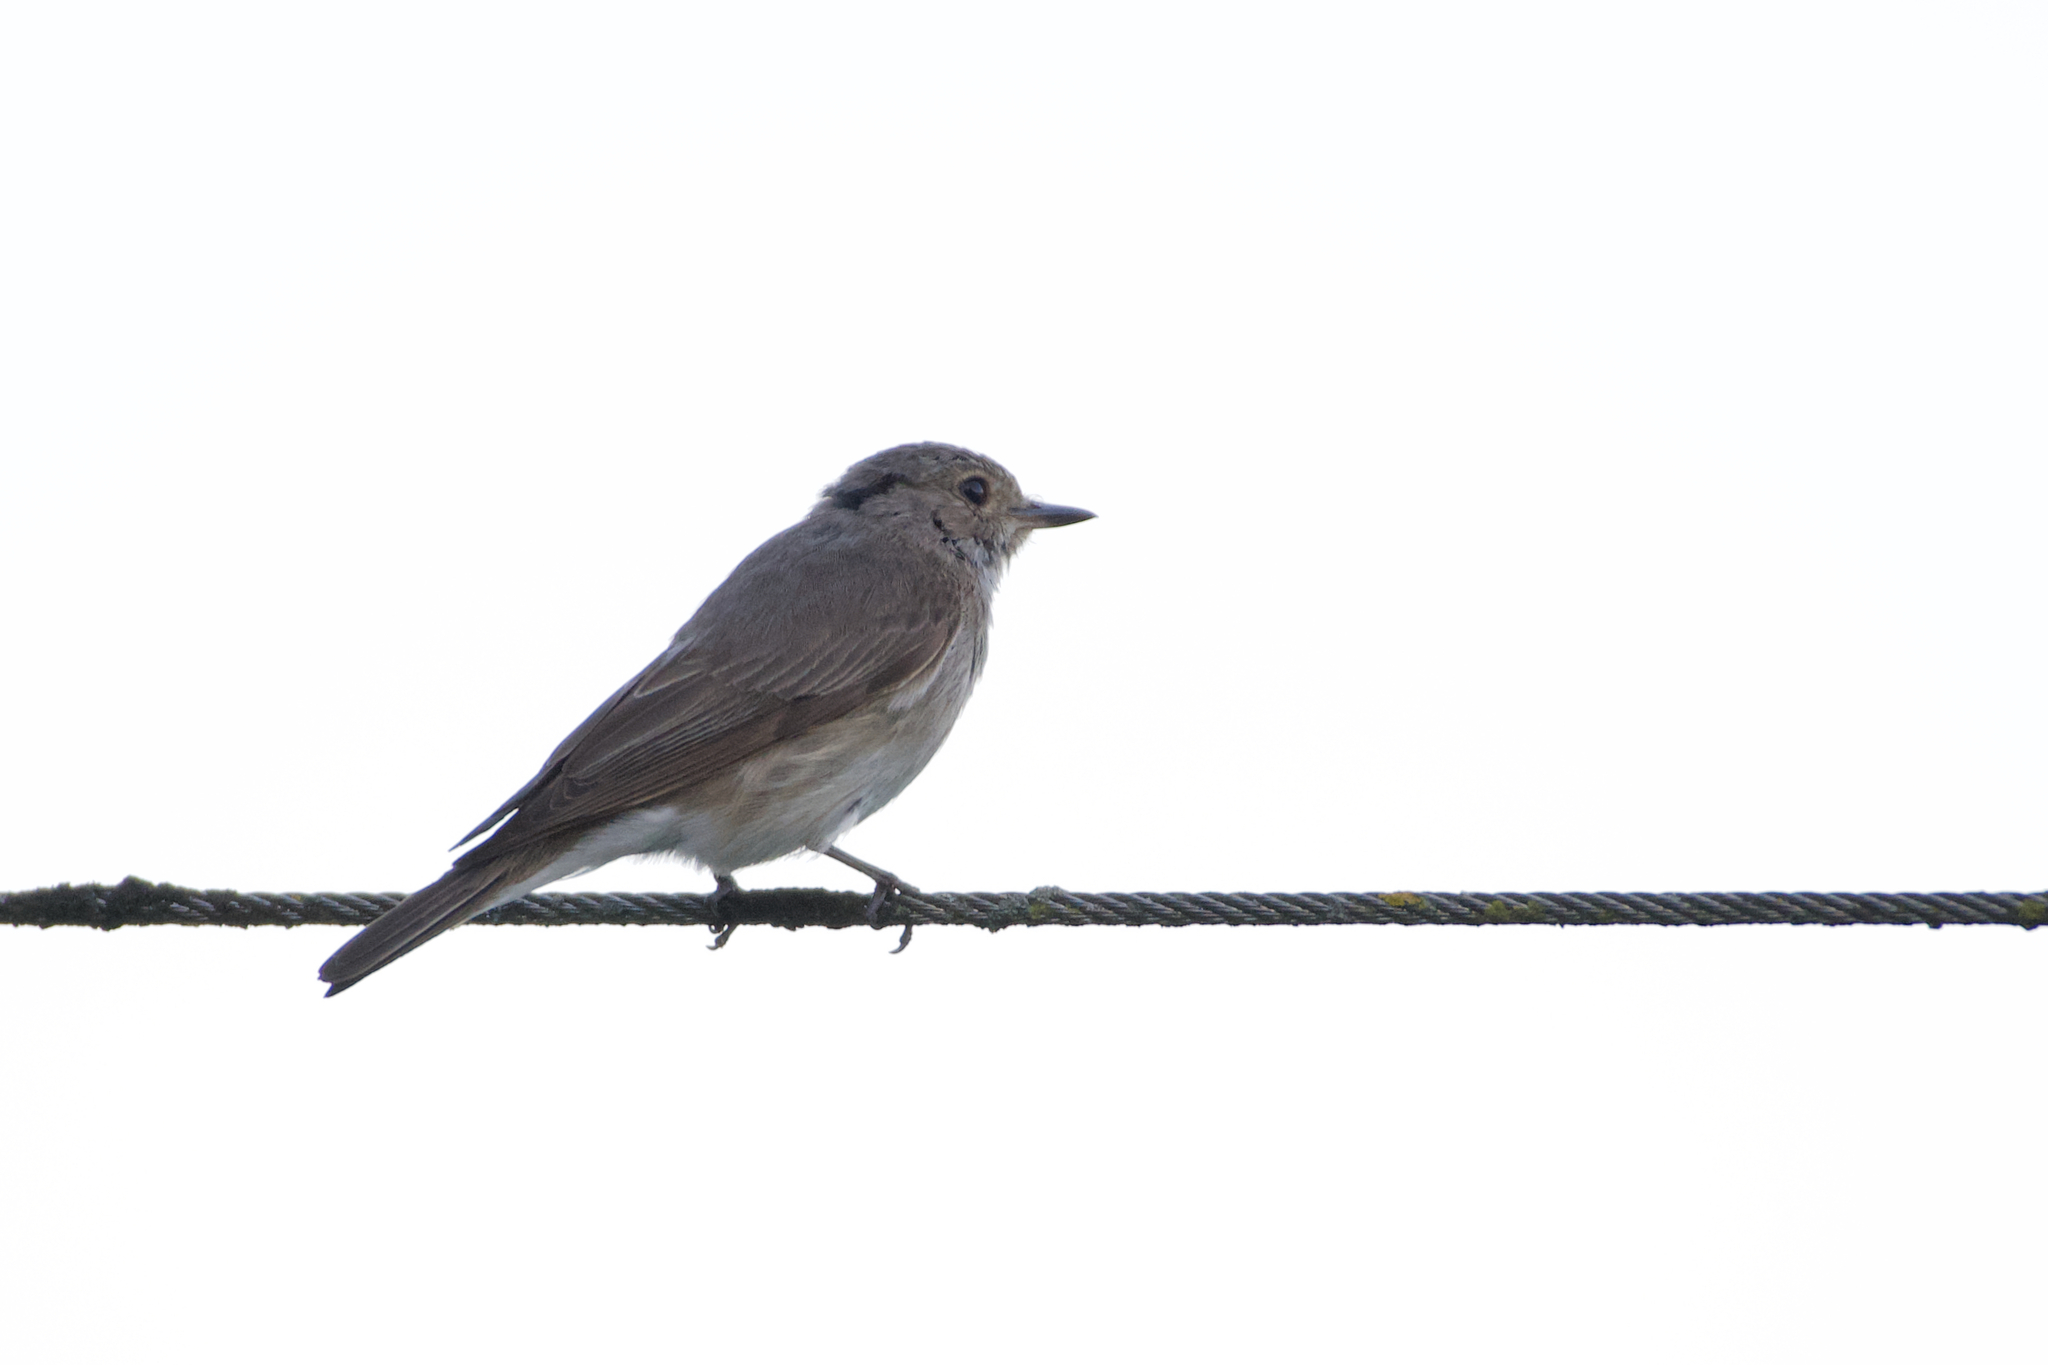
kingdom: Animalia
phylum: Chordata
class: Aves
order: Passeriformes
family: Muscicapidae
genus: Muscicapa
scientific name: Muscicapa striata
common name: Spotted flycatcher
